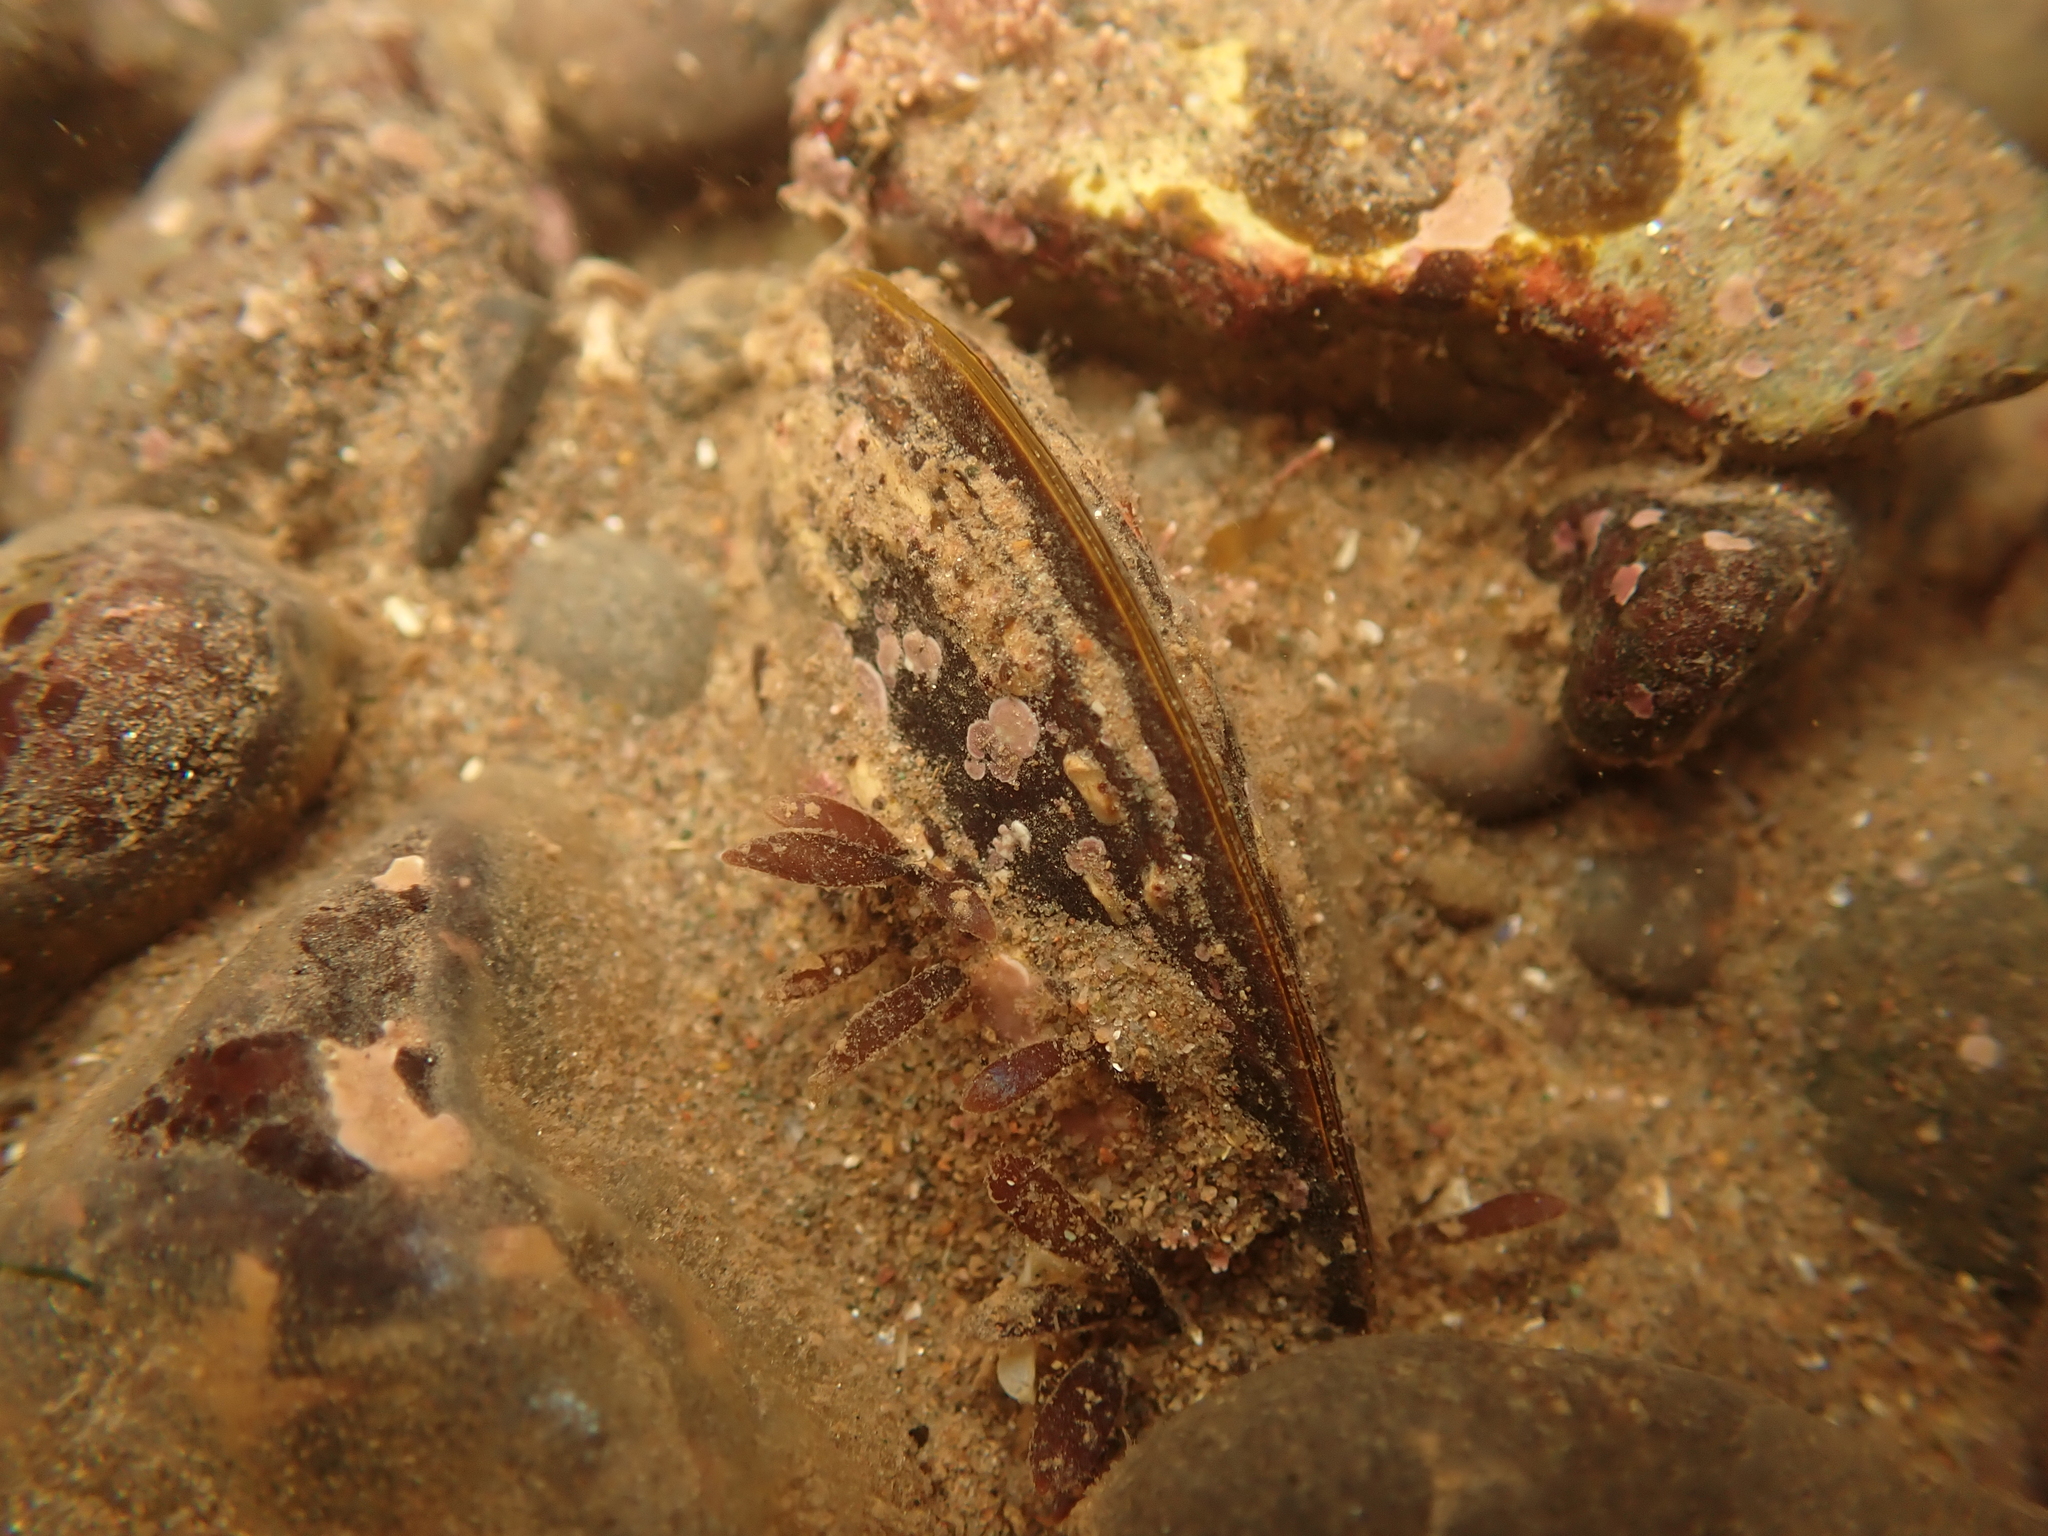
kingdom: Animalia
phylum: Mollusca
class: Bivalvia
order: Mytilida
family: Mytilidae
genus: Modiolus
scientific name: Modiolus modiolus
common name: Horse-mussel
